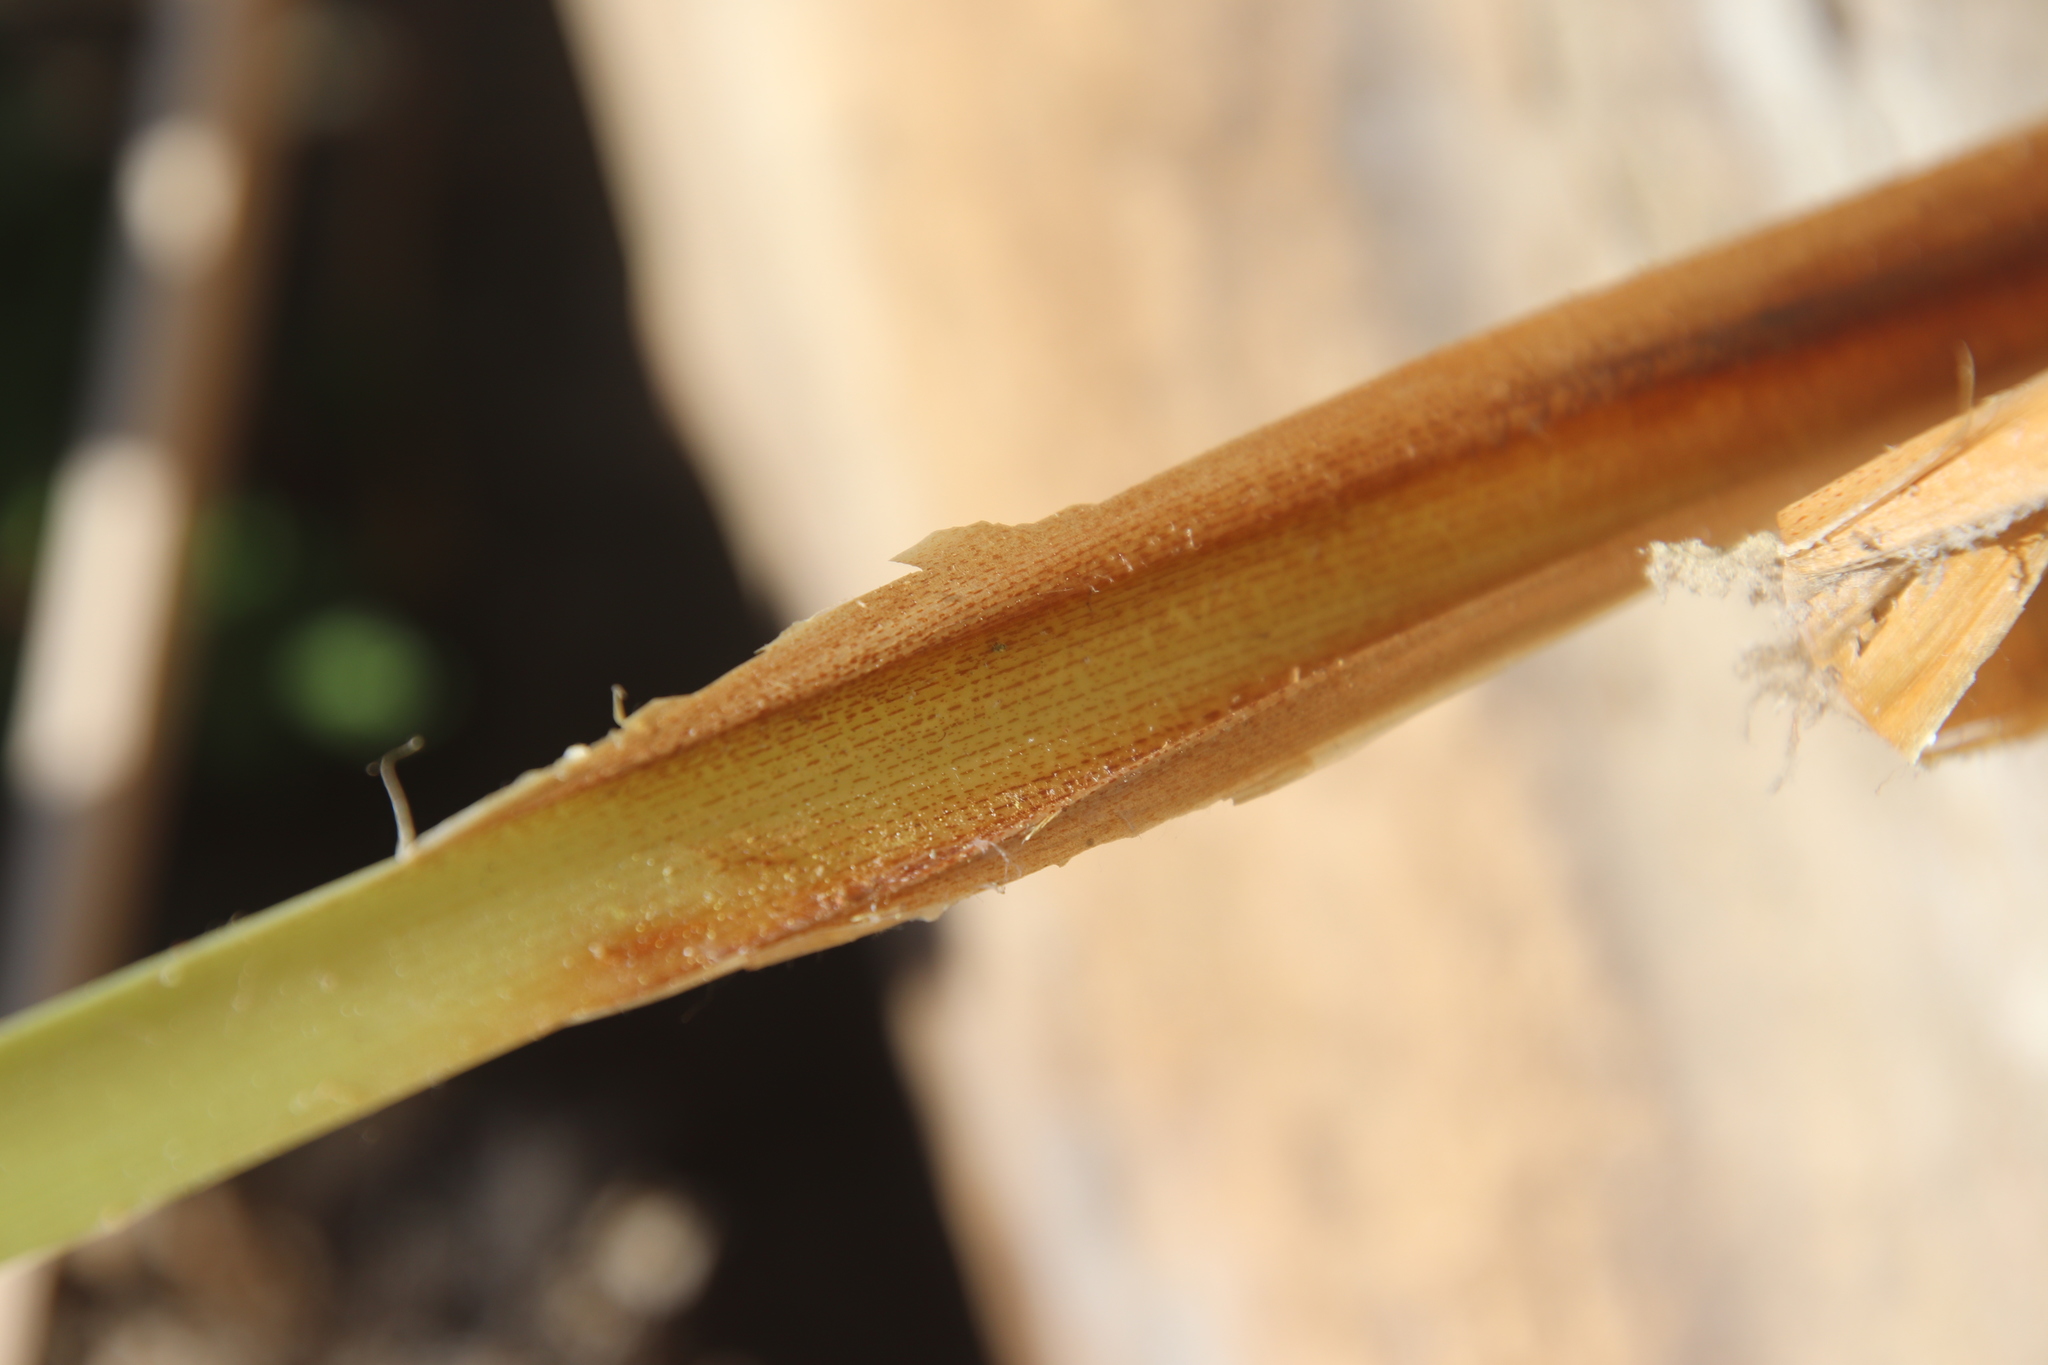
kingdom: Plantae
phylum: Tracheophyta
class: Liliopsida
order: Poales
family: Typhaceae
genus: Typha
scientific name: Typha domingensis
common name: Southern cattail
